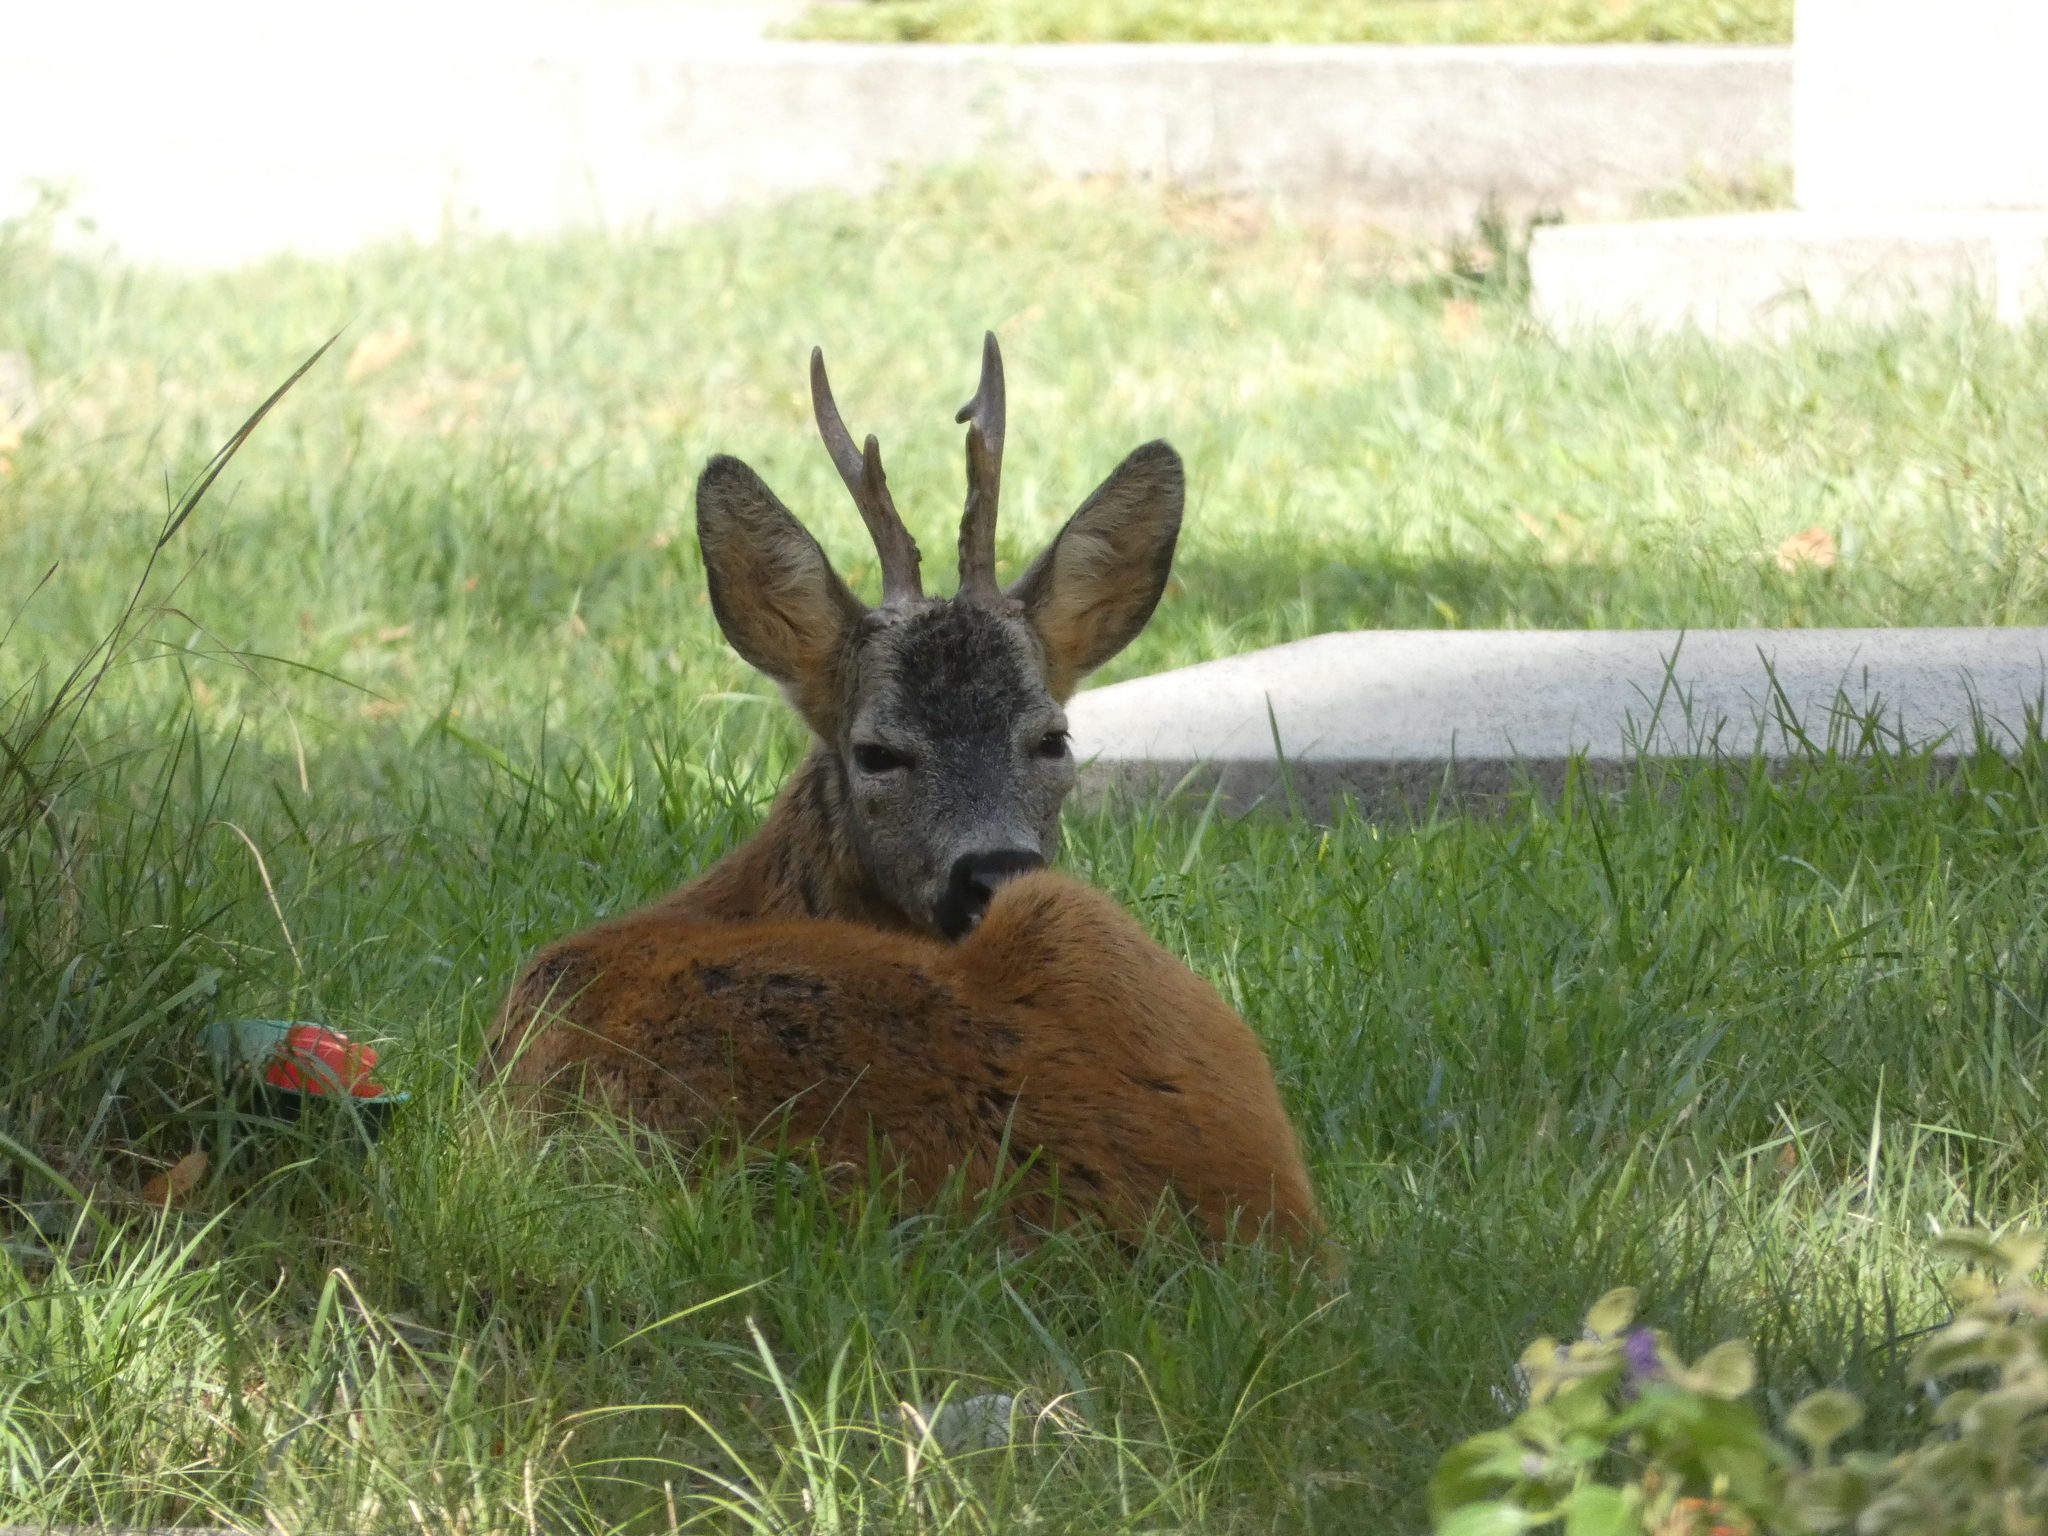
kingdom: Animalia
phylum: Chordata
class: Mammalia
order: Artiodactyla
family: Cervidae
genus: Capreolus
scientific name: Capreolus capreolus
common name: Western roe deer
